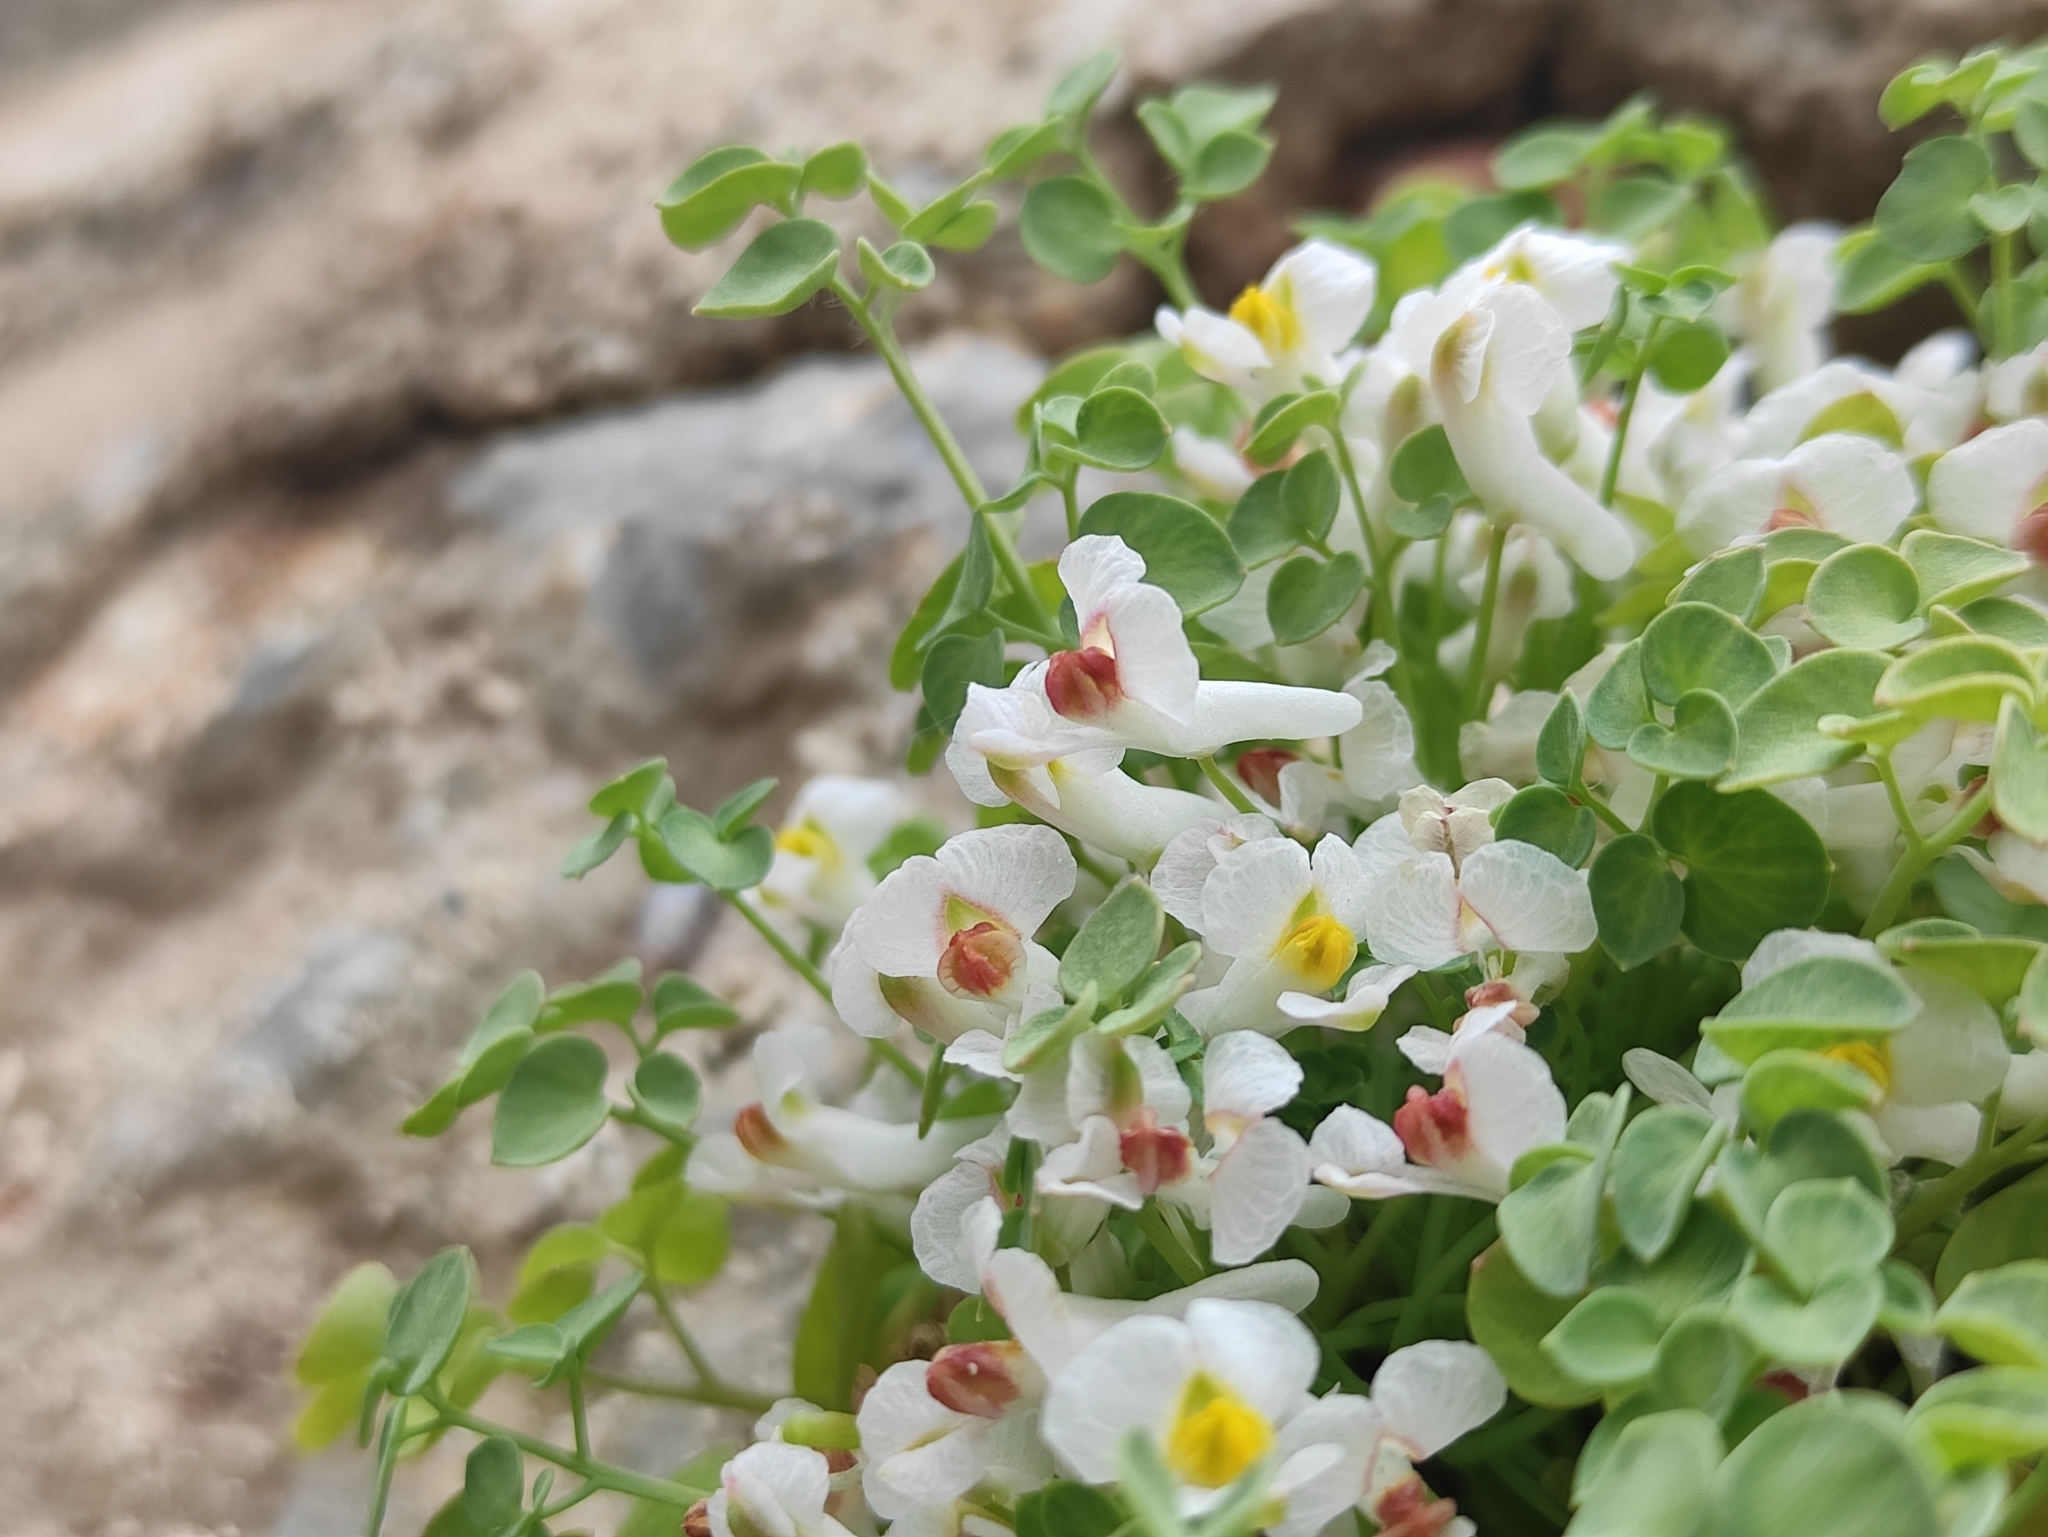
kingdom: Plantae
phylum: Tracheophyta
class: Magnoliopsida
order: Ranunculales
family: Papaveraceae
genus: Sarcocapnos
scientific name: Sarcocapnos enneaphylla
